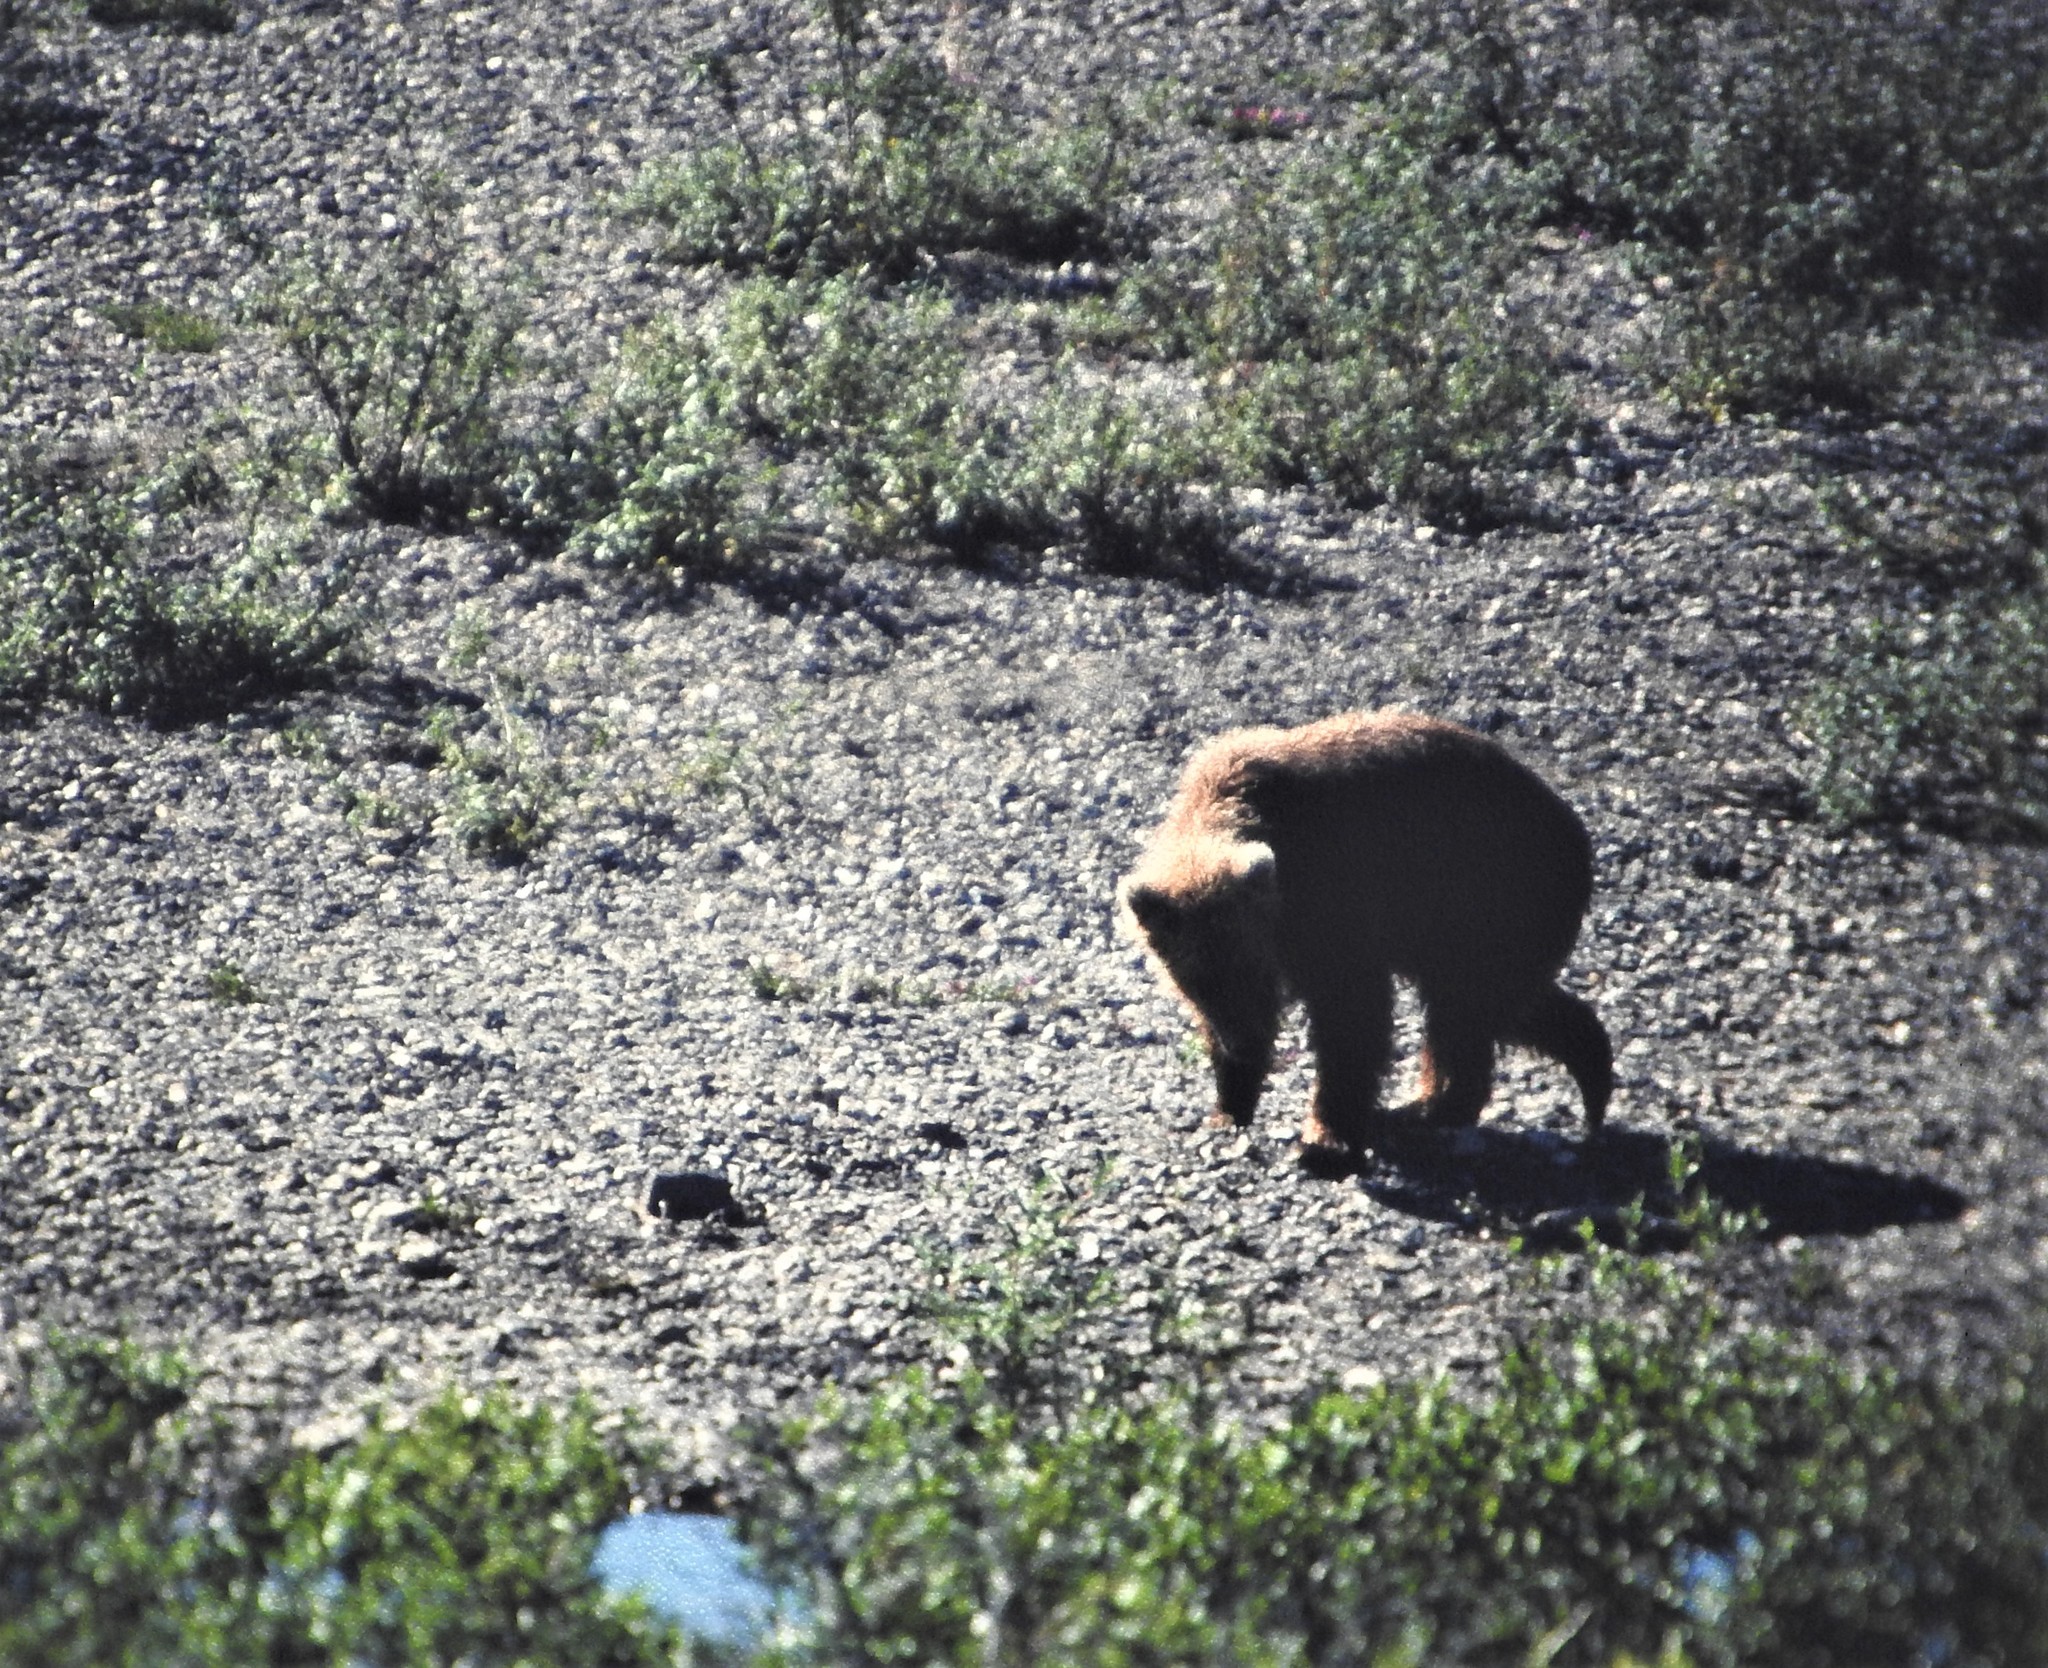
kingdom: Animalia
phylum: Chordata
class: Mammalia
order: Carnivora
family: Ursidae
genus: Ursus
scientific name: Ursus arctos
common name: Brown bear
